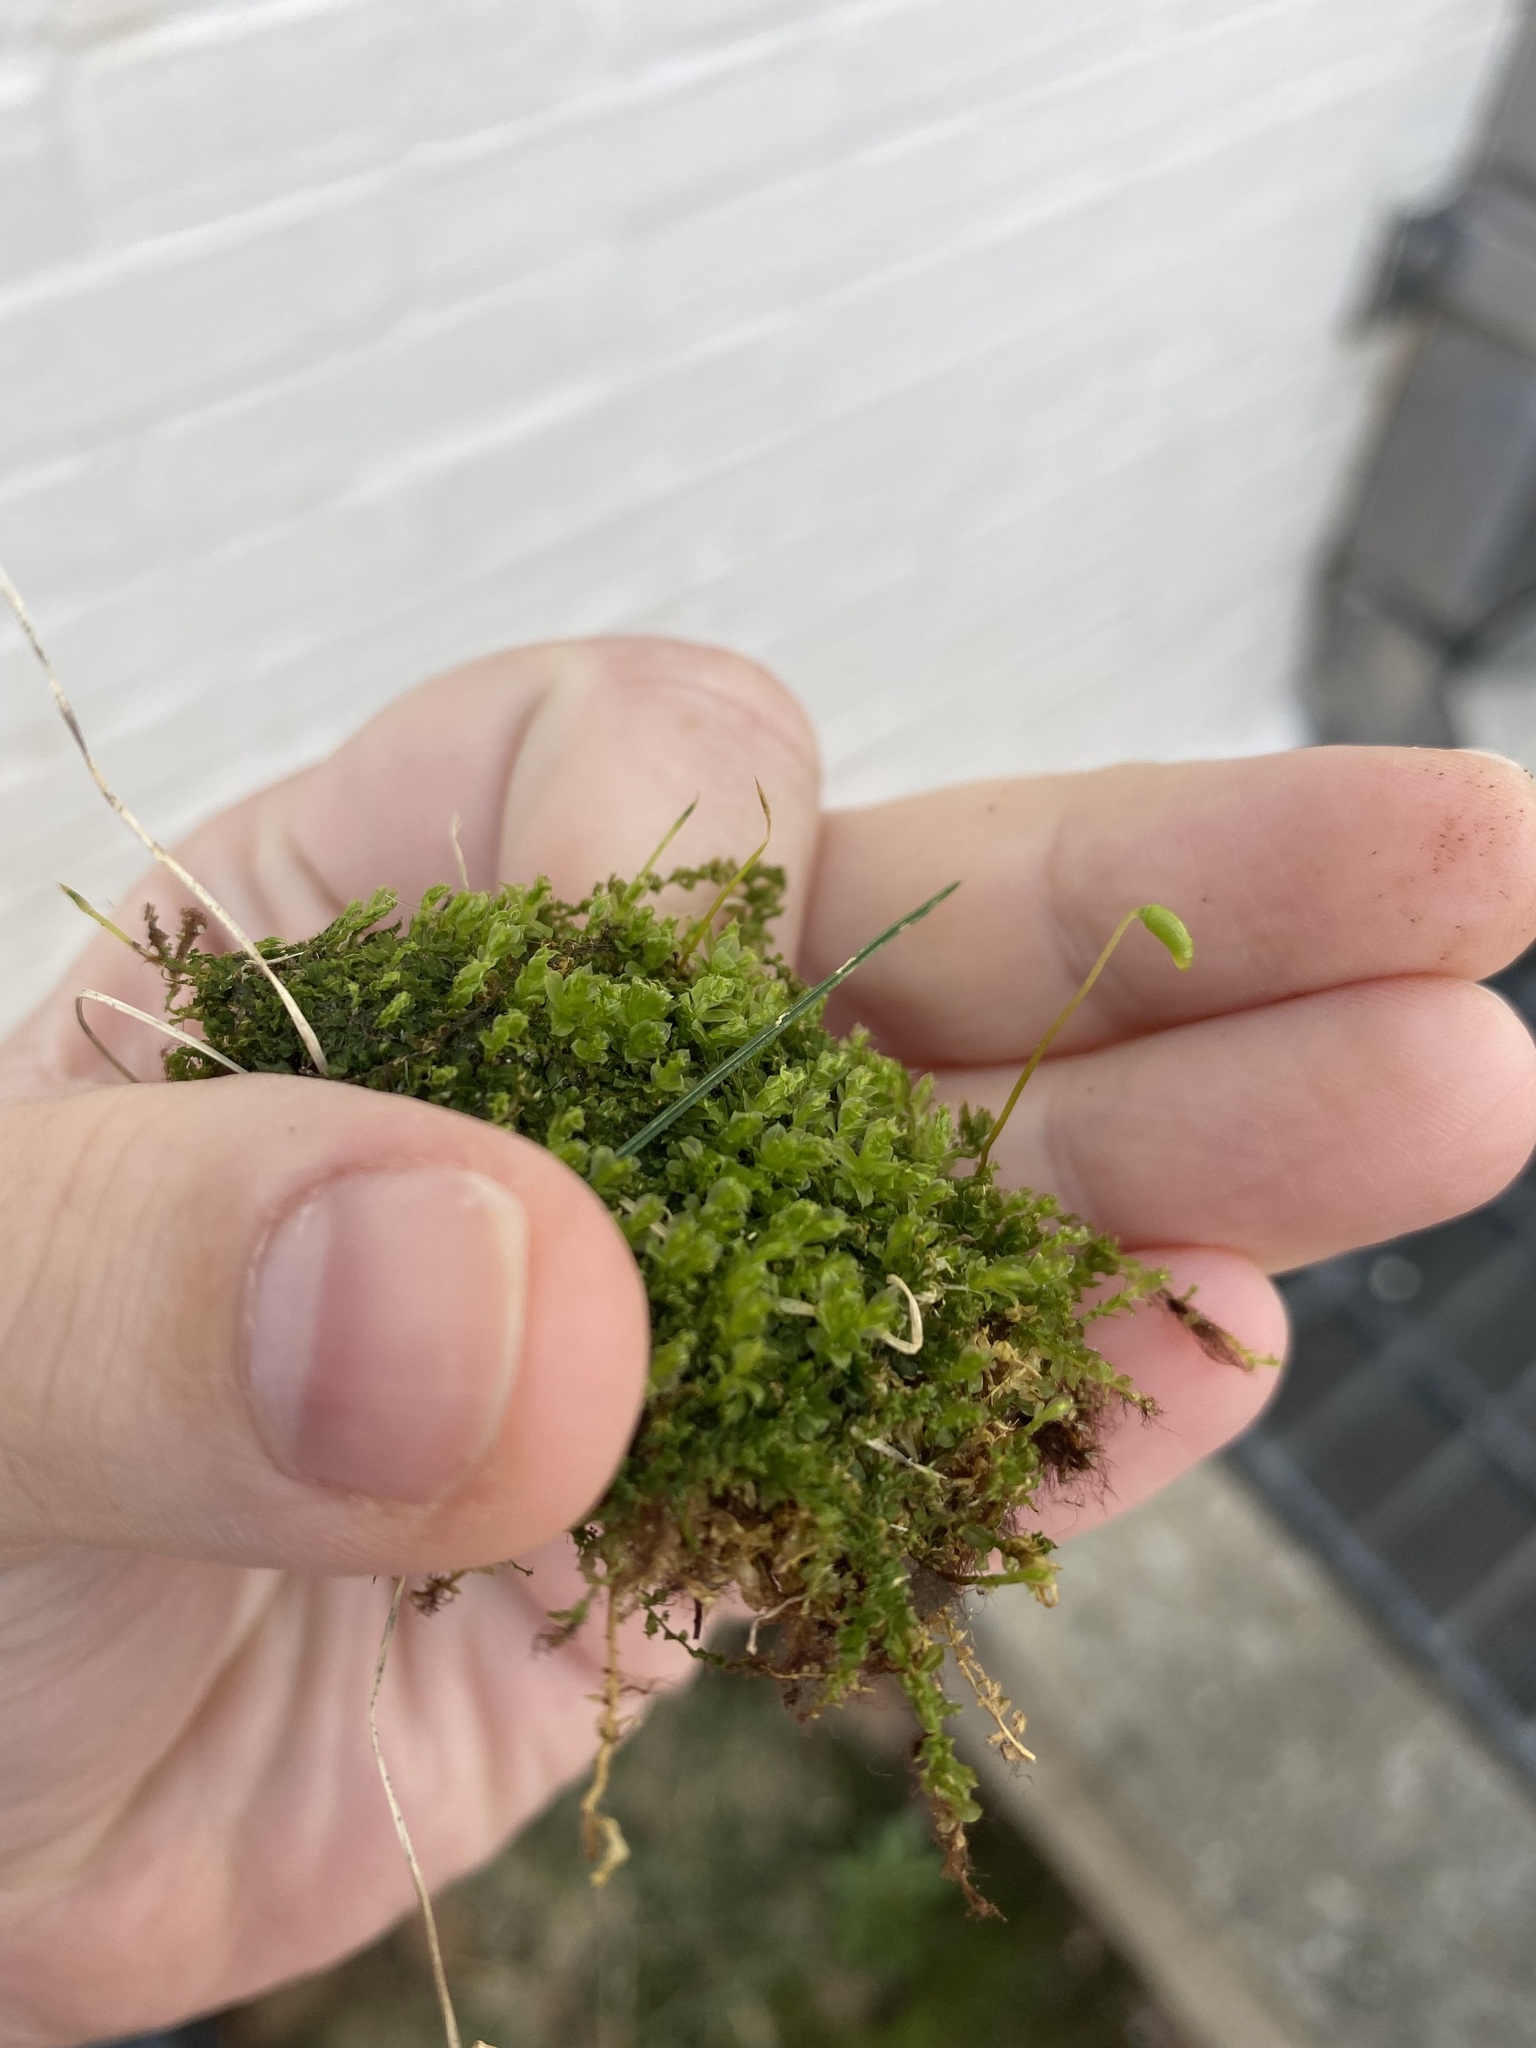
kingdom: Plantae
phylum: Bryophyta
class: Bryopsida
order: Bryales
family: Mniaceae
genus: Plagiomnium
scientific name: Plagiomnium cuspidatum
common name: Woodsy leafy moss
